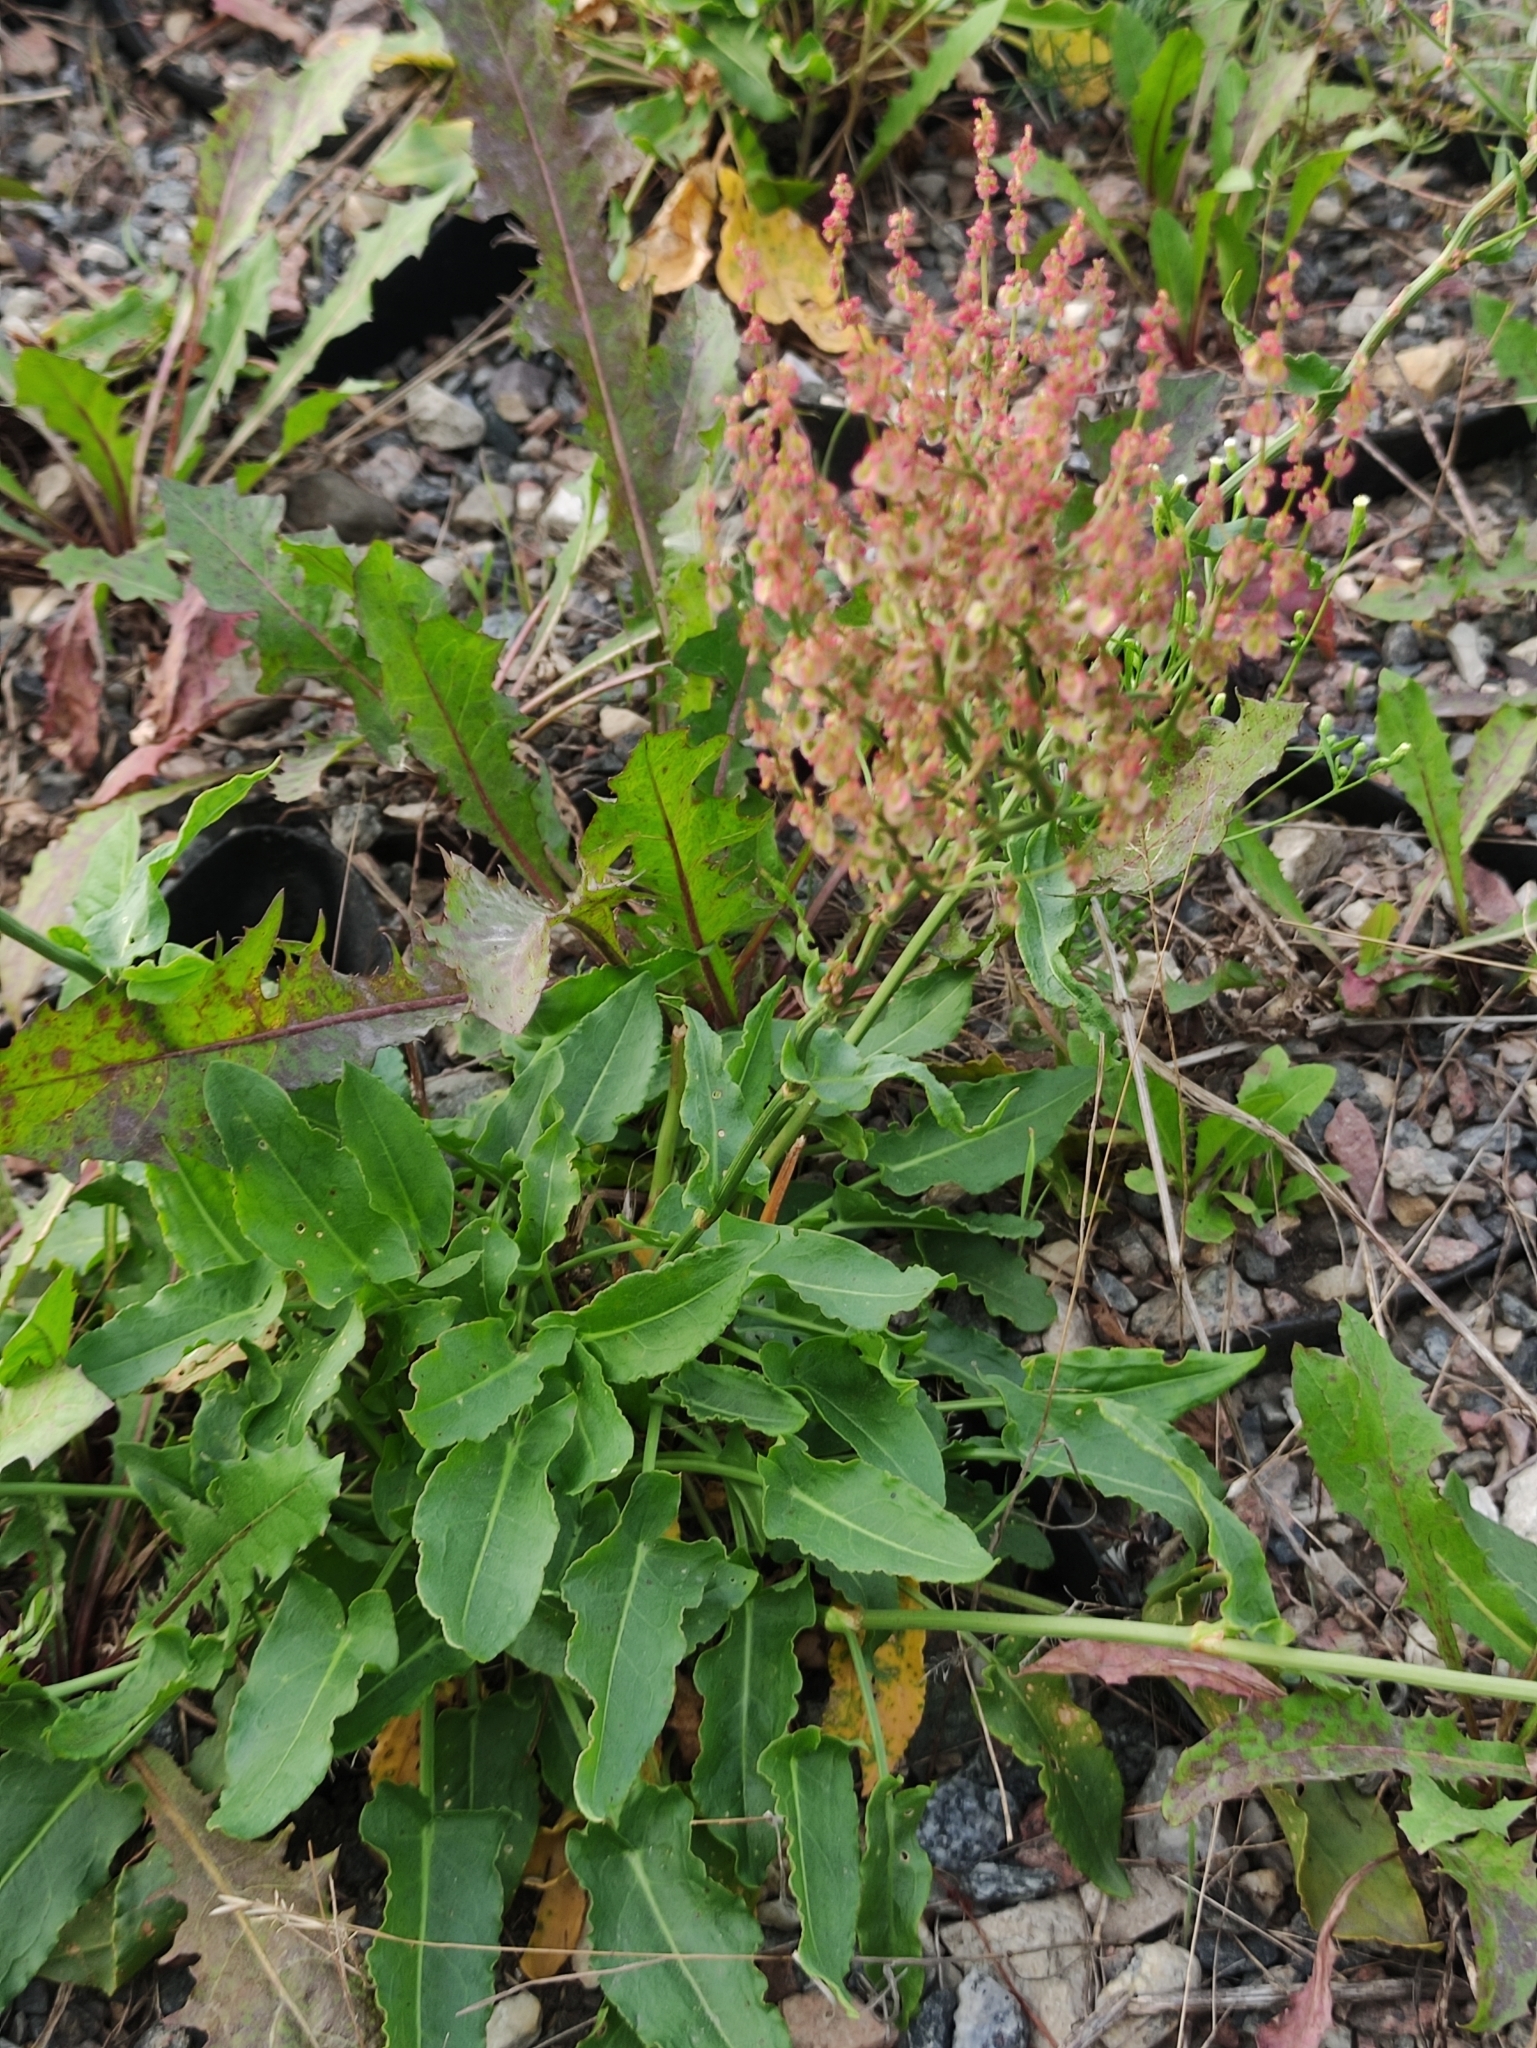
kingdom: Plantae
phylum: Tracheophyta
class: Magnoliopsida
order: Caryophyllales
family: Polygonaceae
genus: Rumex
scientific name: Rumex thyrsiflorus
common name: Garden sorrel
